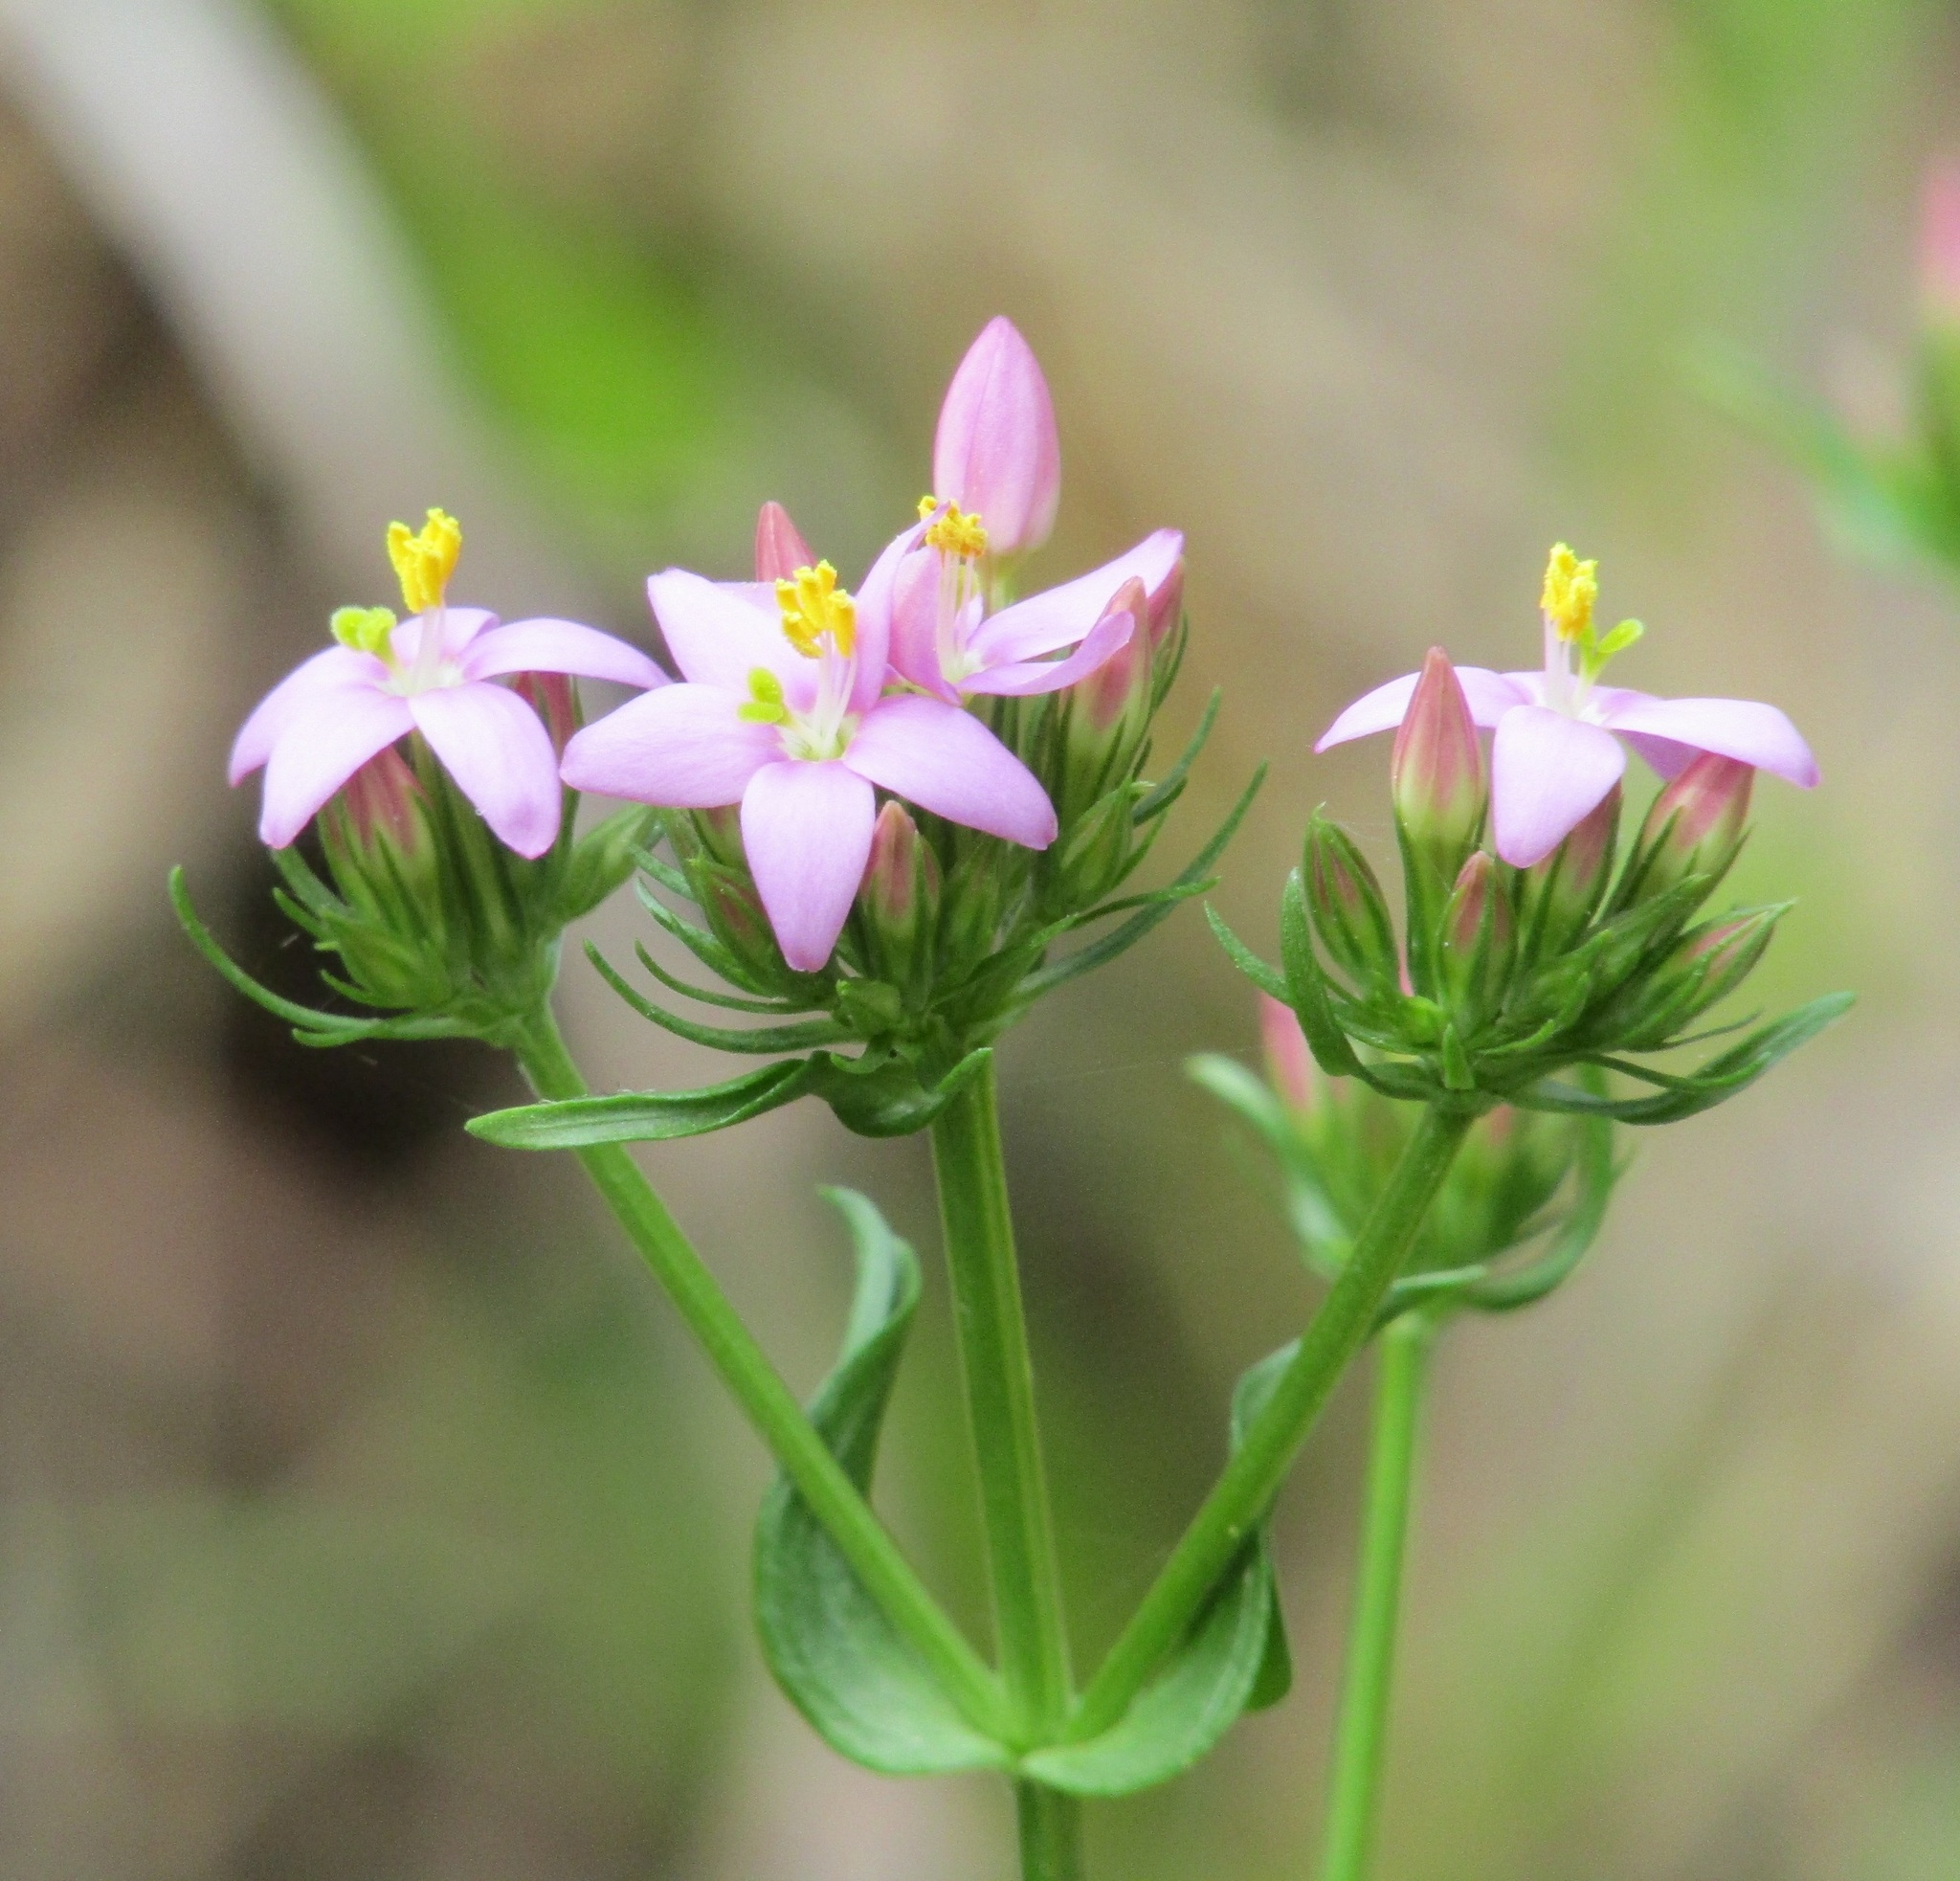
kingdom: Plantae
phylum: Tracheophyta
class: Magnoliopsida
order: Gentianales
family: Gentianaceae
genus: Centaurium
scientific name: Centaurium erythraea
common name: Common centaury
